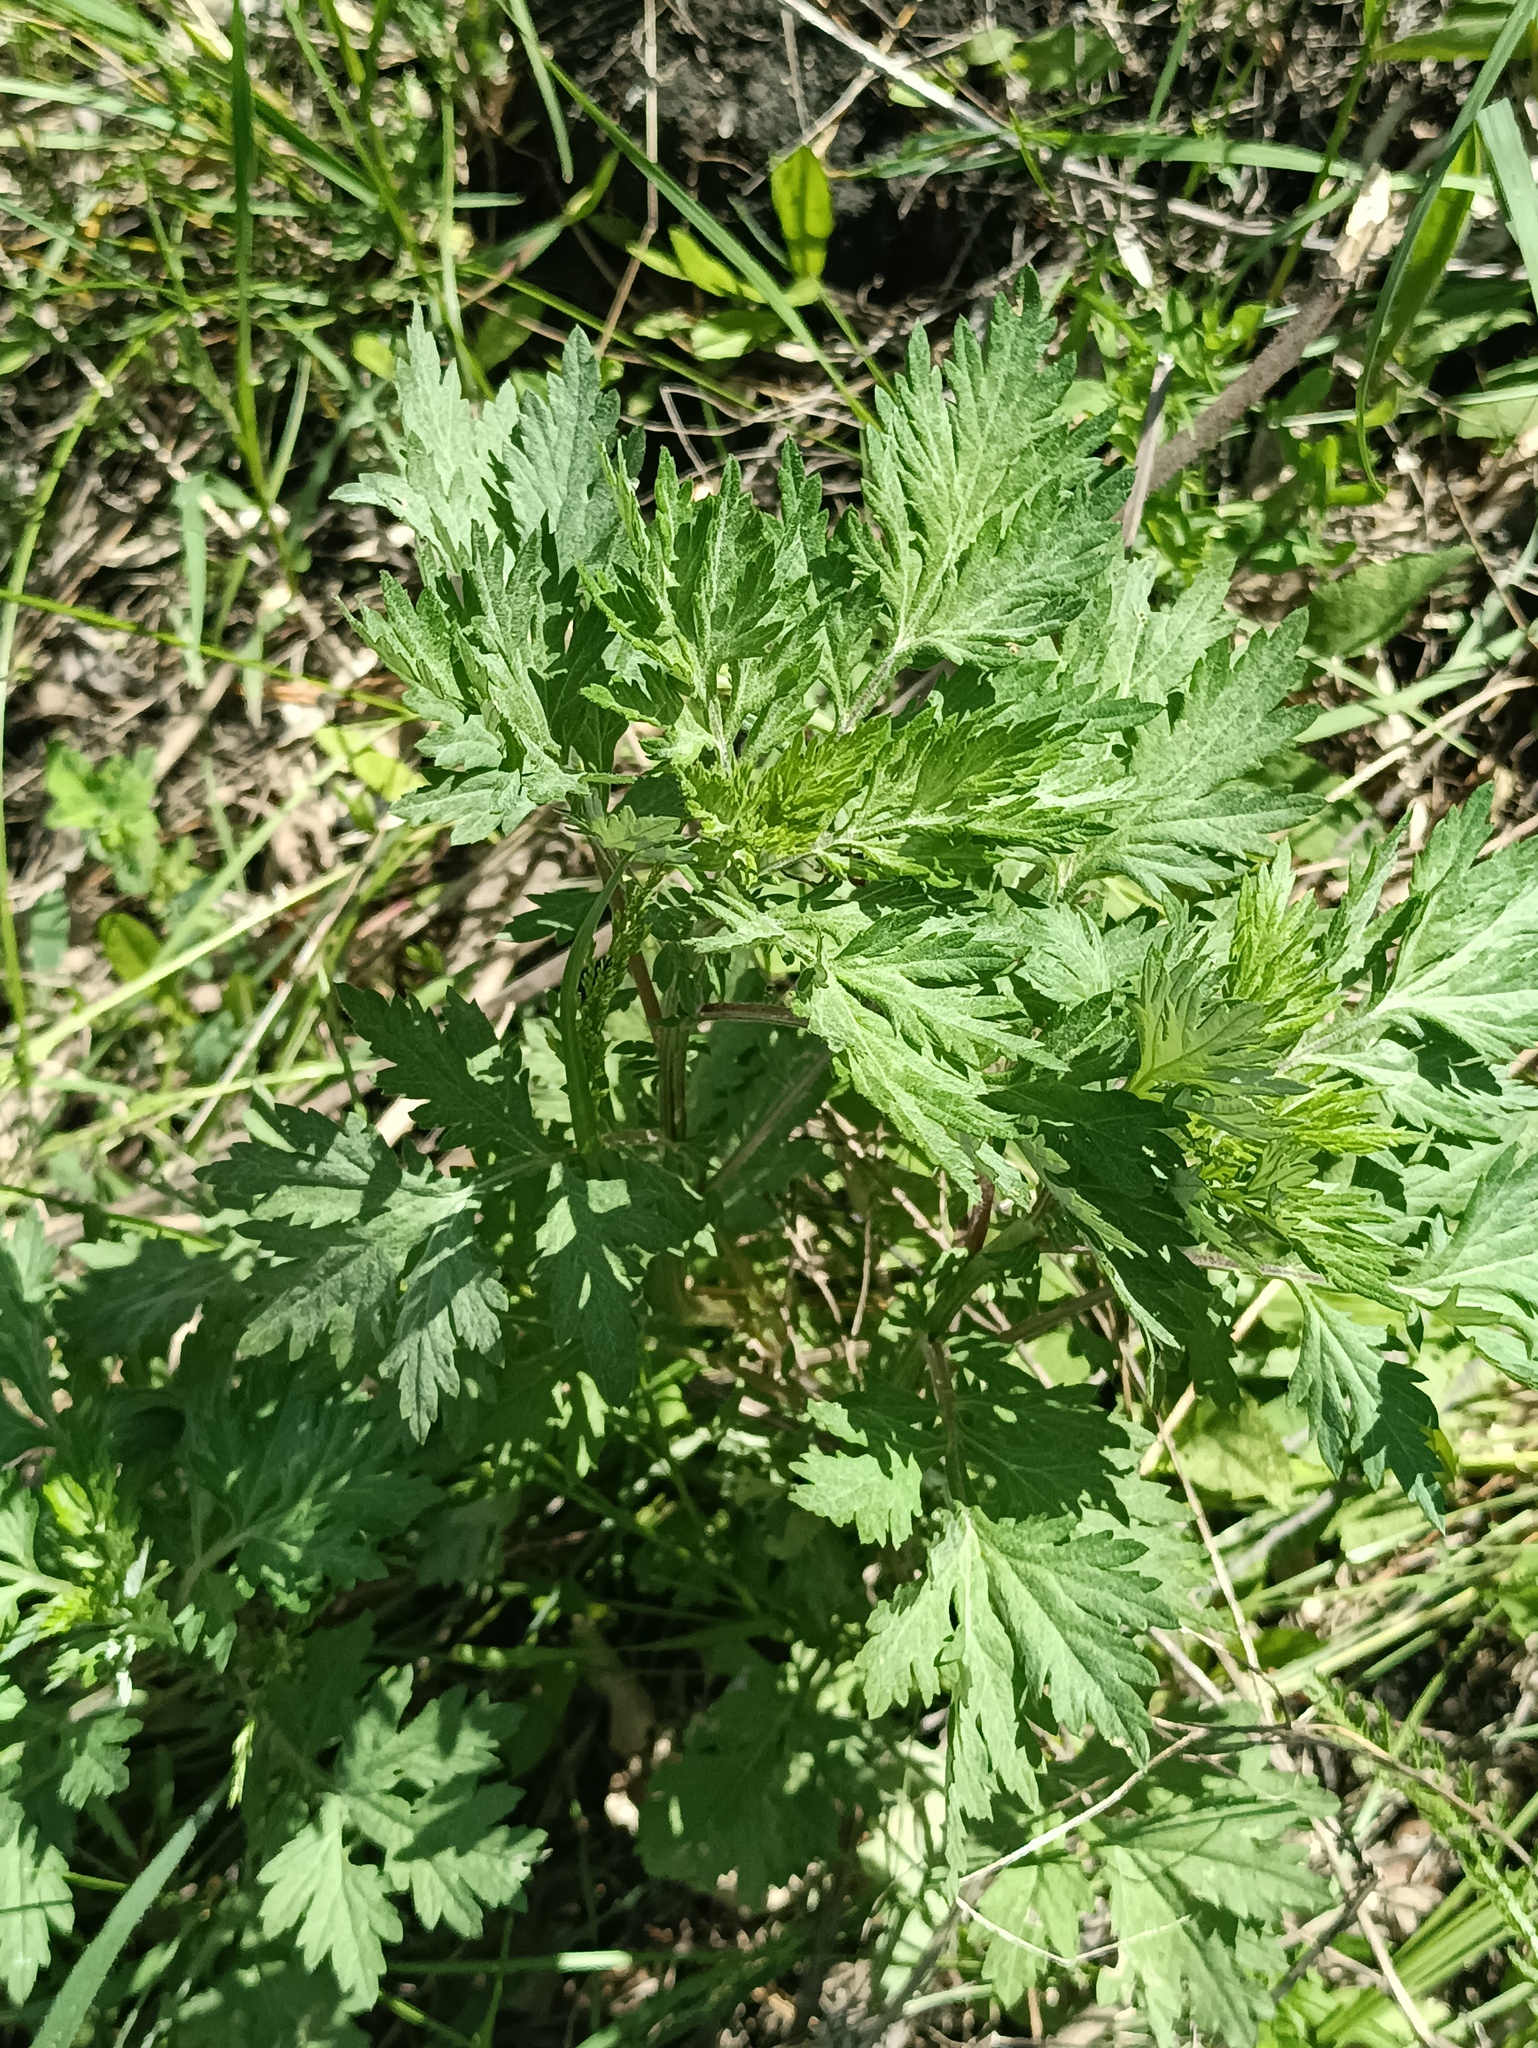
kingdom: Plantae
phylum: Tracheophyta
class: Magnoliopsida
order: Asterales
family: Asteraceae
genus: Artemisia
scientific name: Artemisia vulgaris
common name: Mugwort
